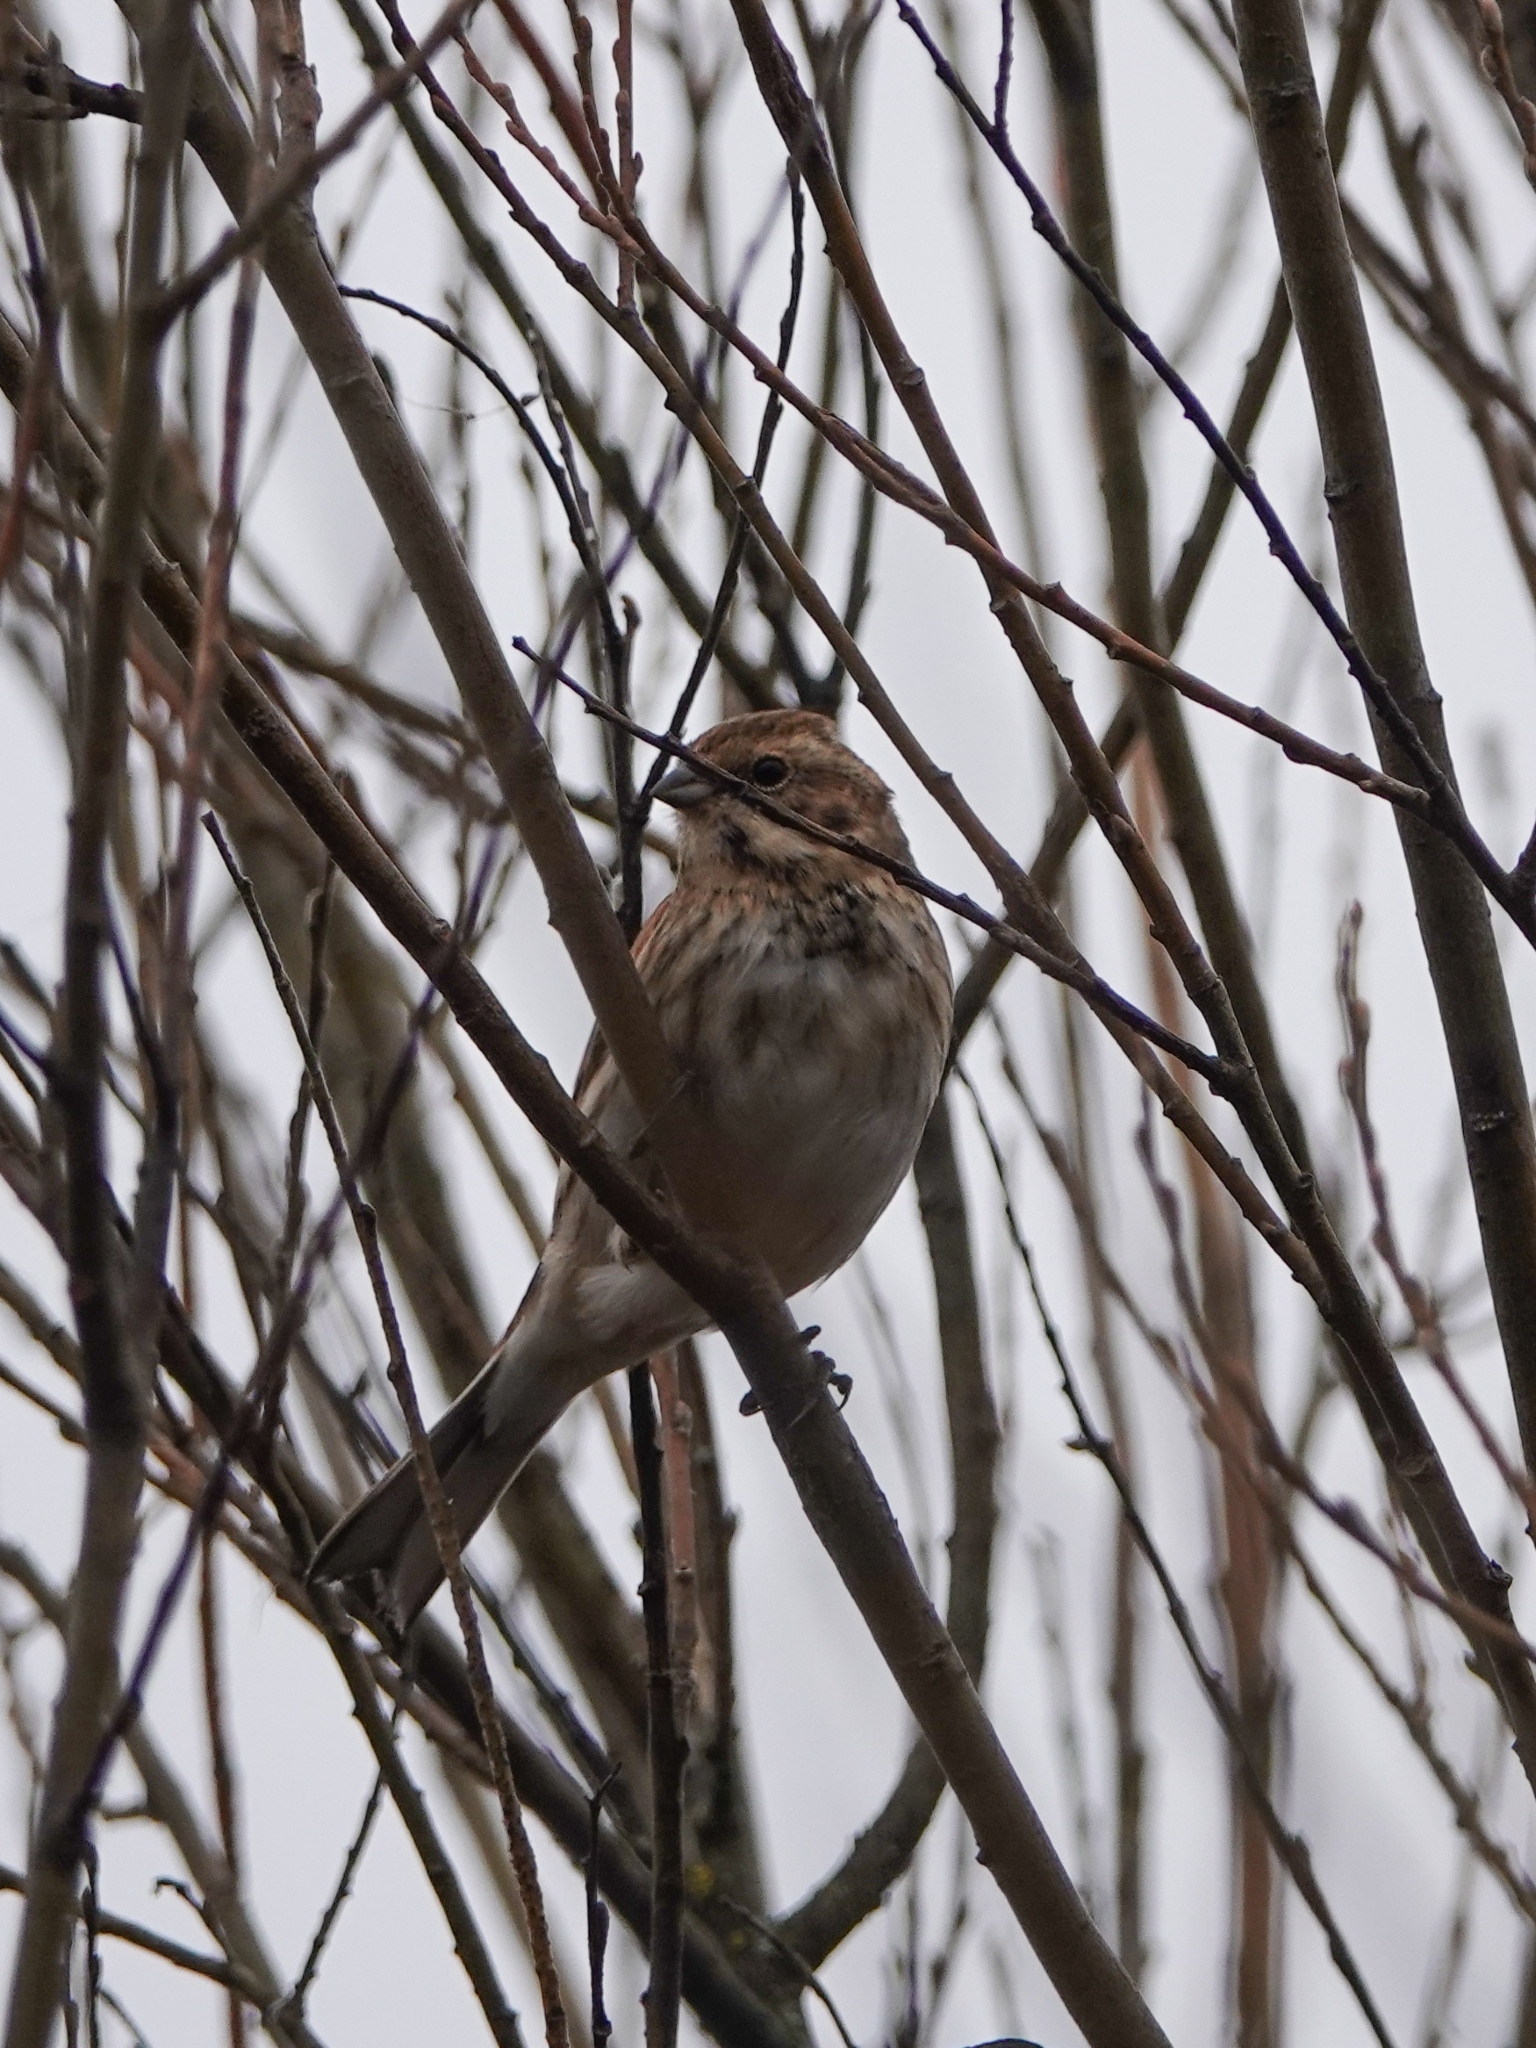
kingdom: Animalia
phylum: Chordata
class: Aves
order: Passeriformes
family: Emberizidae
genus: Emberiza
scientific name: Emberiza schoeniclus
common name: Reed bunting
